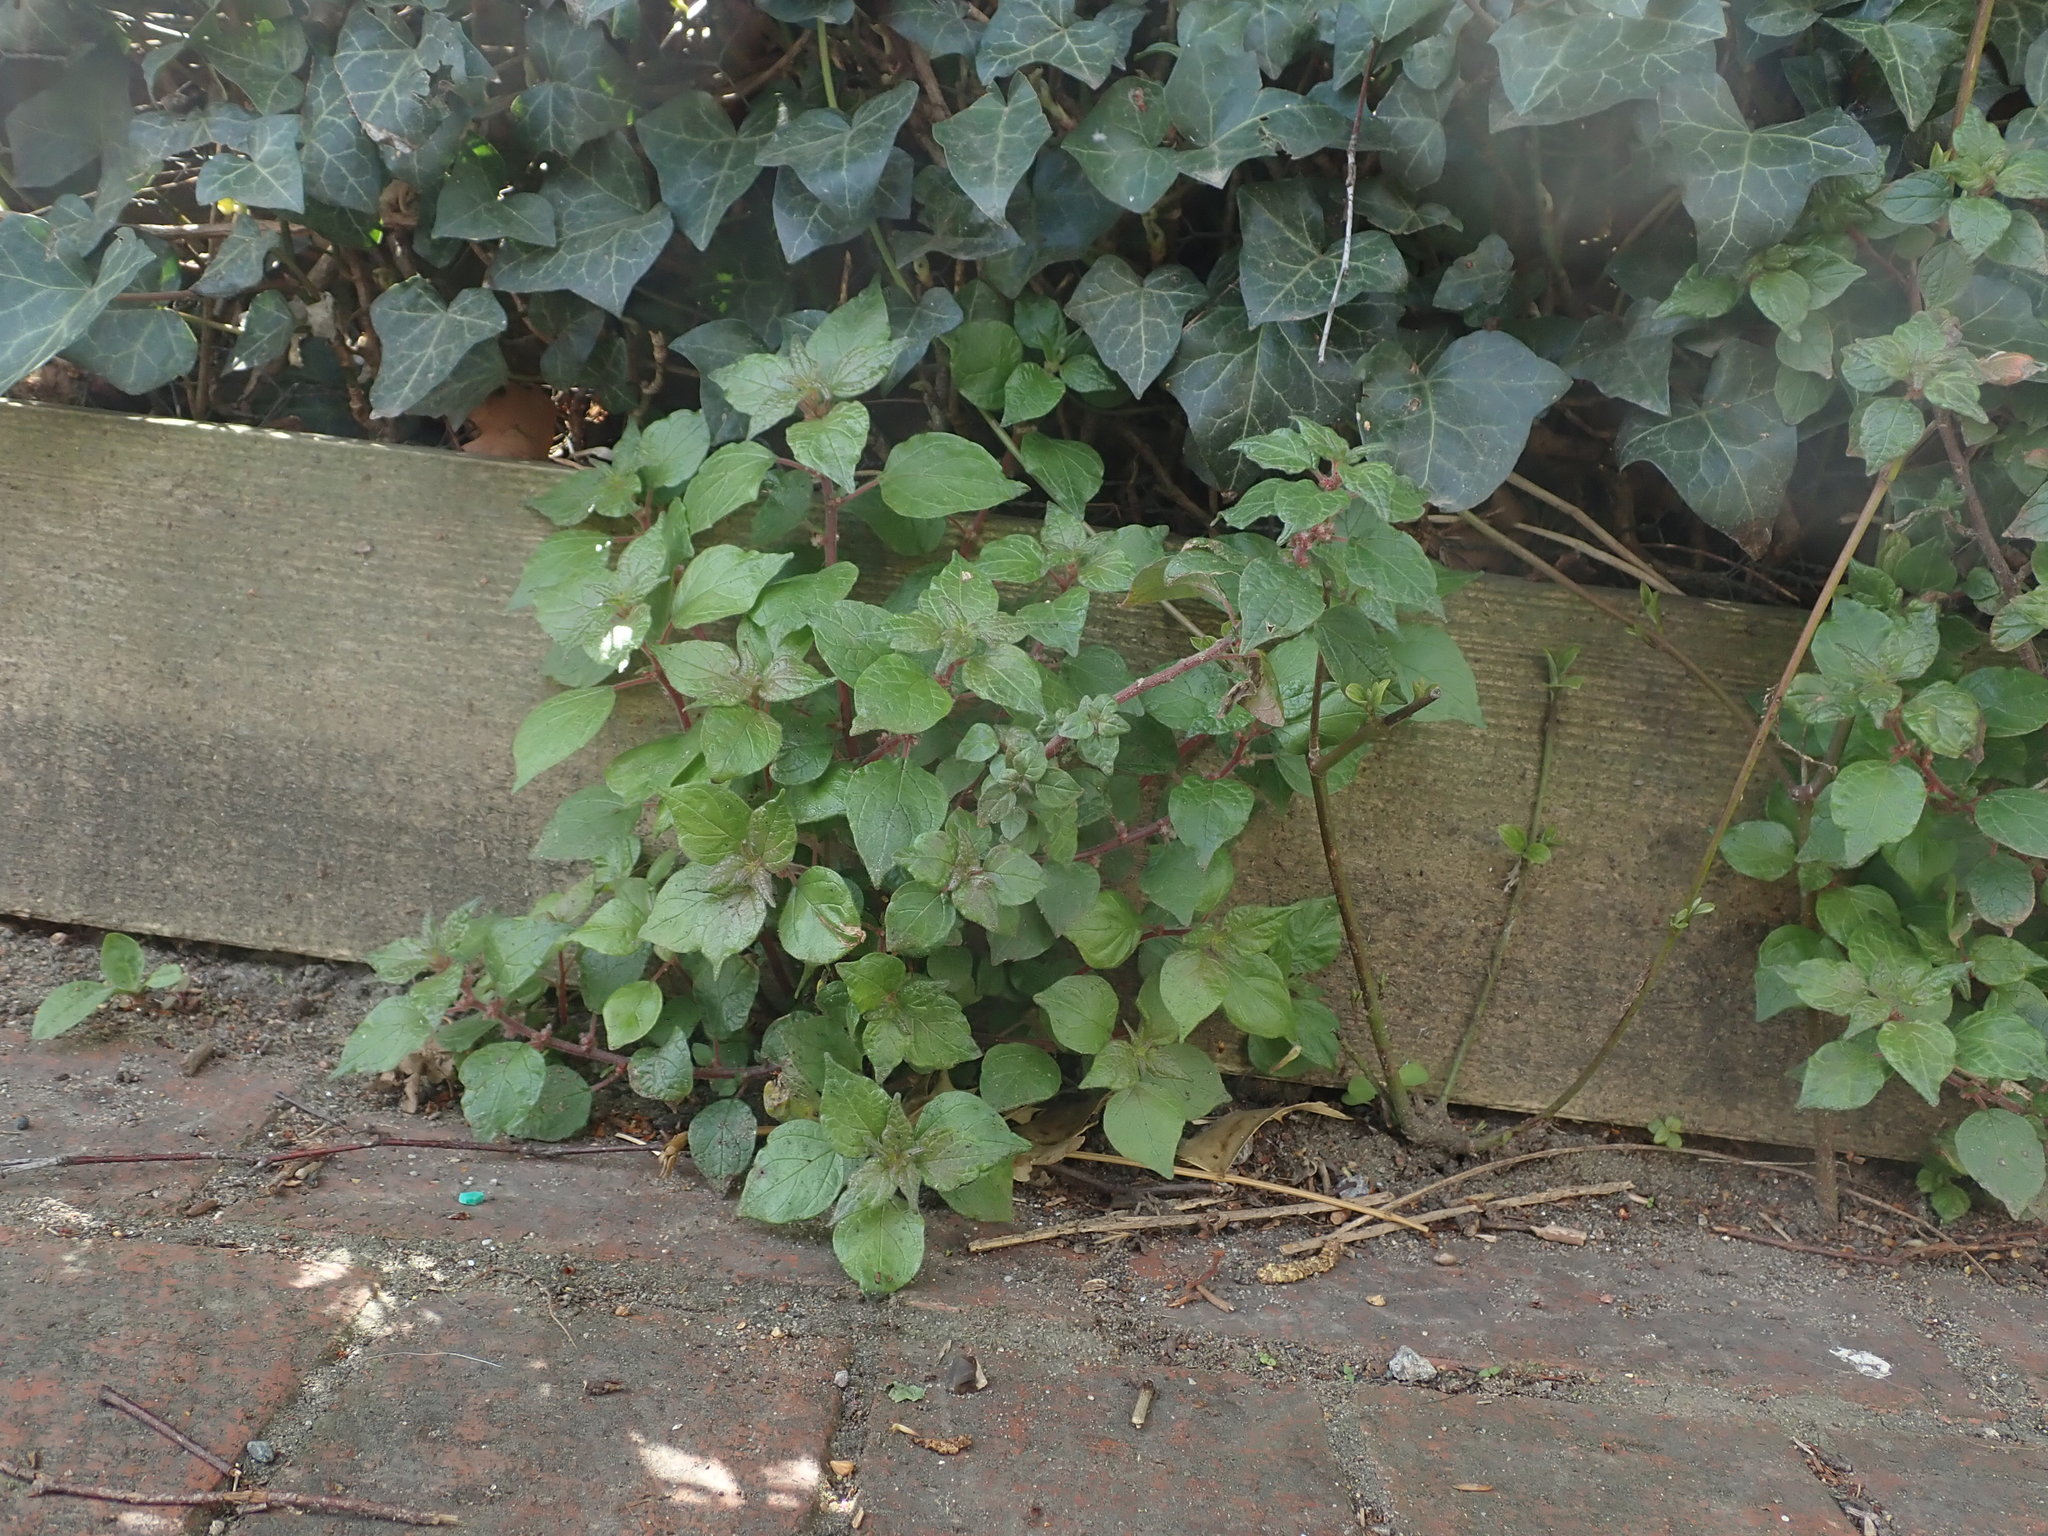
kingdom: Plantae
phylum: Tracheophyta
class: Magnoliopsida
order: Rosales
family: Urticaceae
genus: Parietaria
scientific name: Parietaria judaica
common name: Pellitory-of-the-wall
